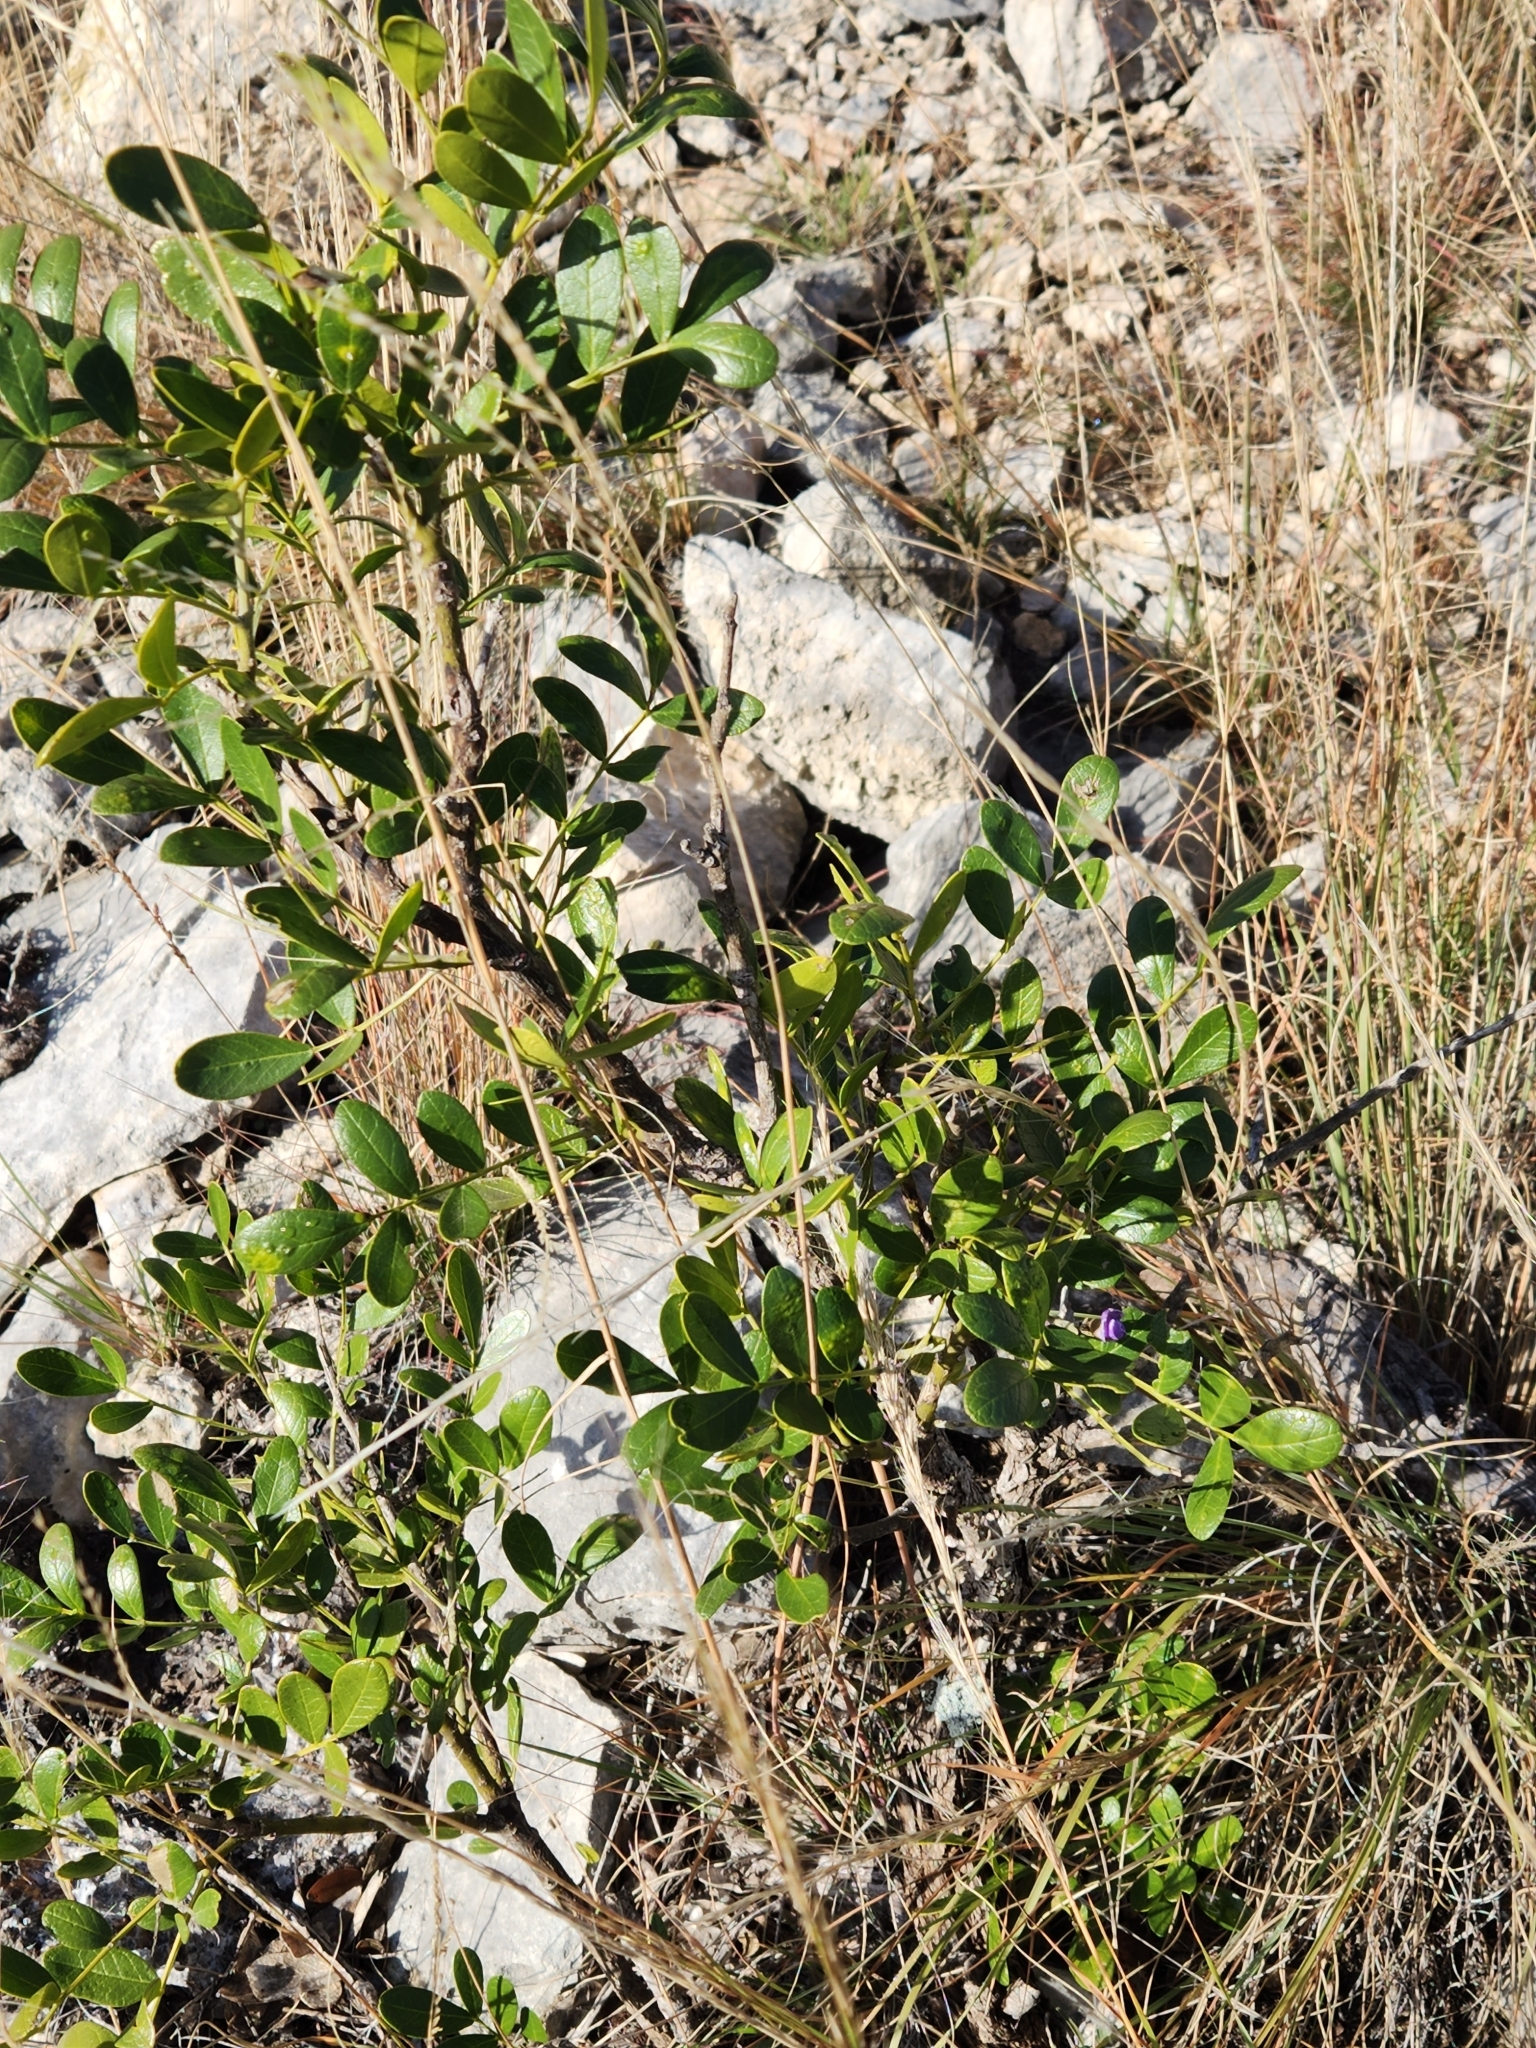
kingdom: Plantae
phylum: Tracheophyta
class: Magnoliopsida
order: Fabales
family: Fabaceae
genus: Dermatophyllum
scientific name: Dermatophyllum secundiflorum
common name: Texas-mountain-laurel
